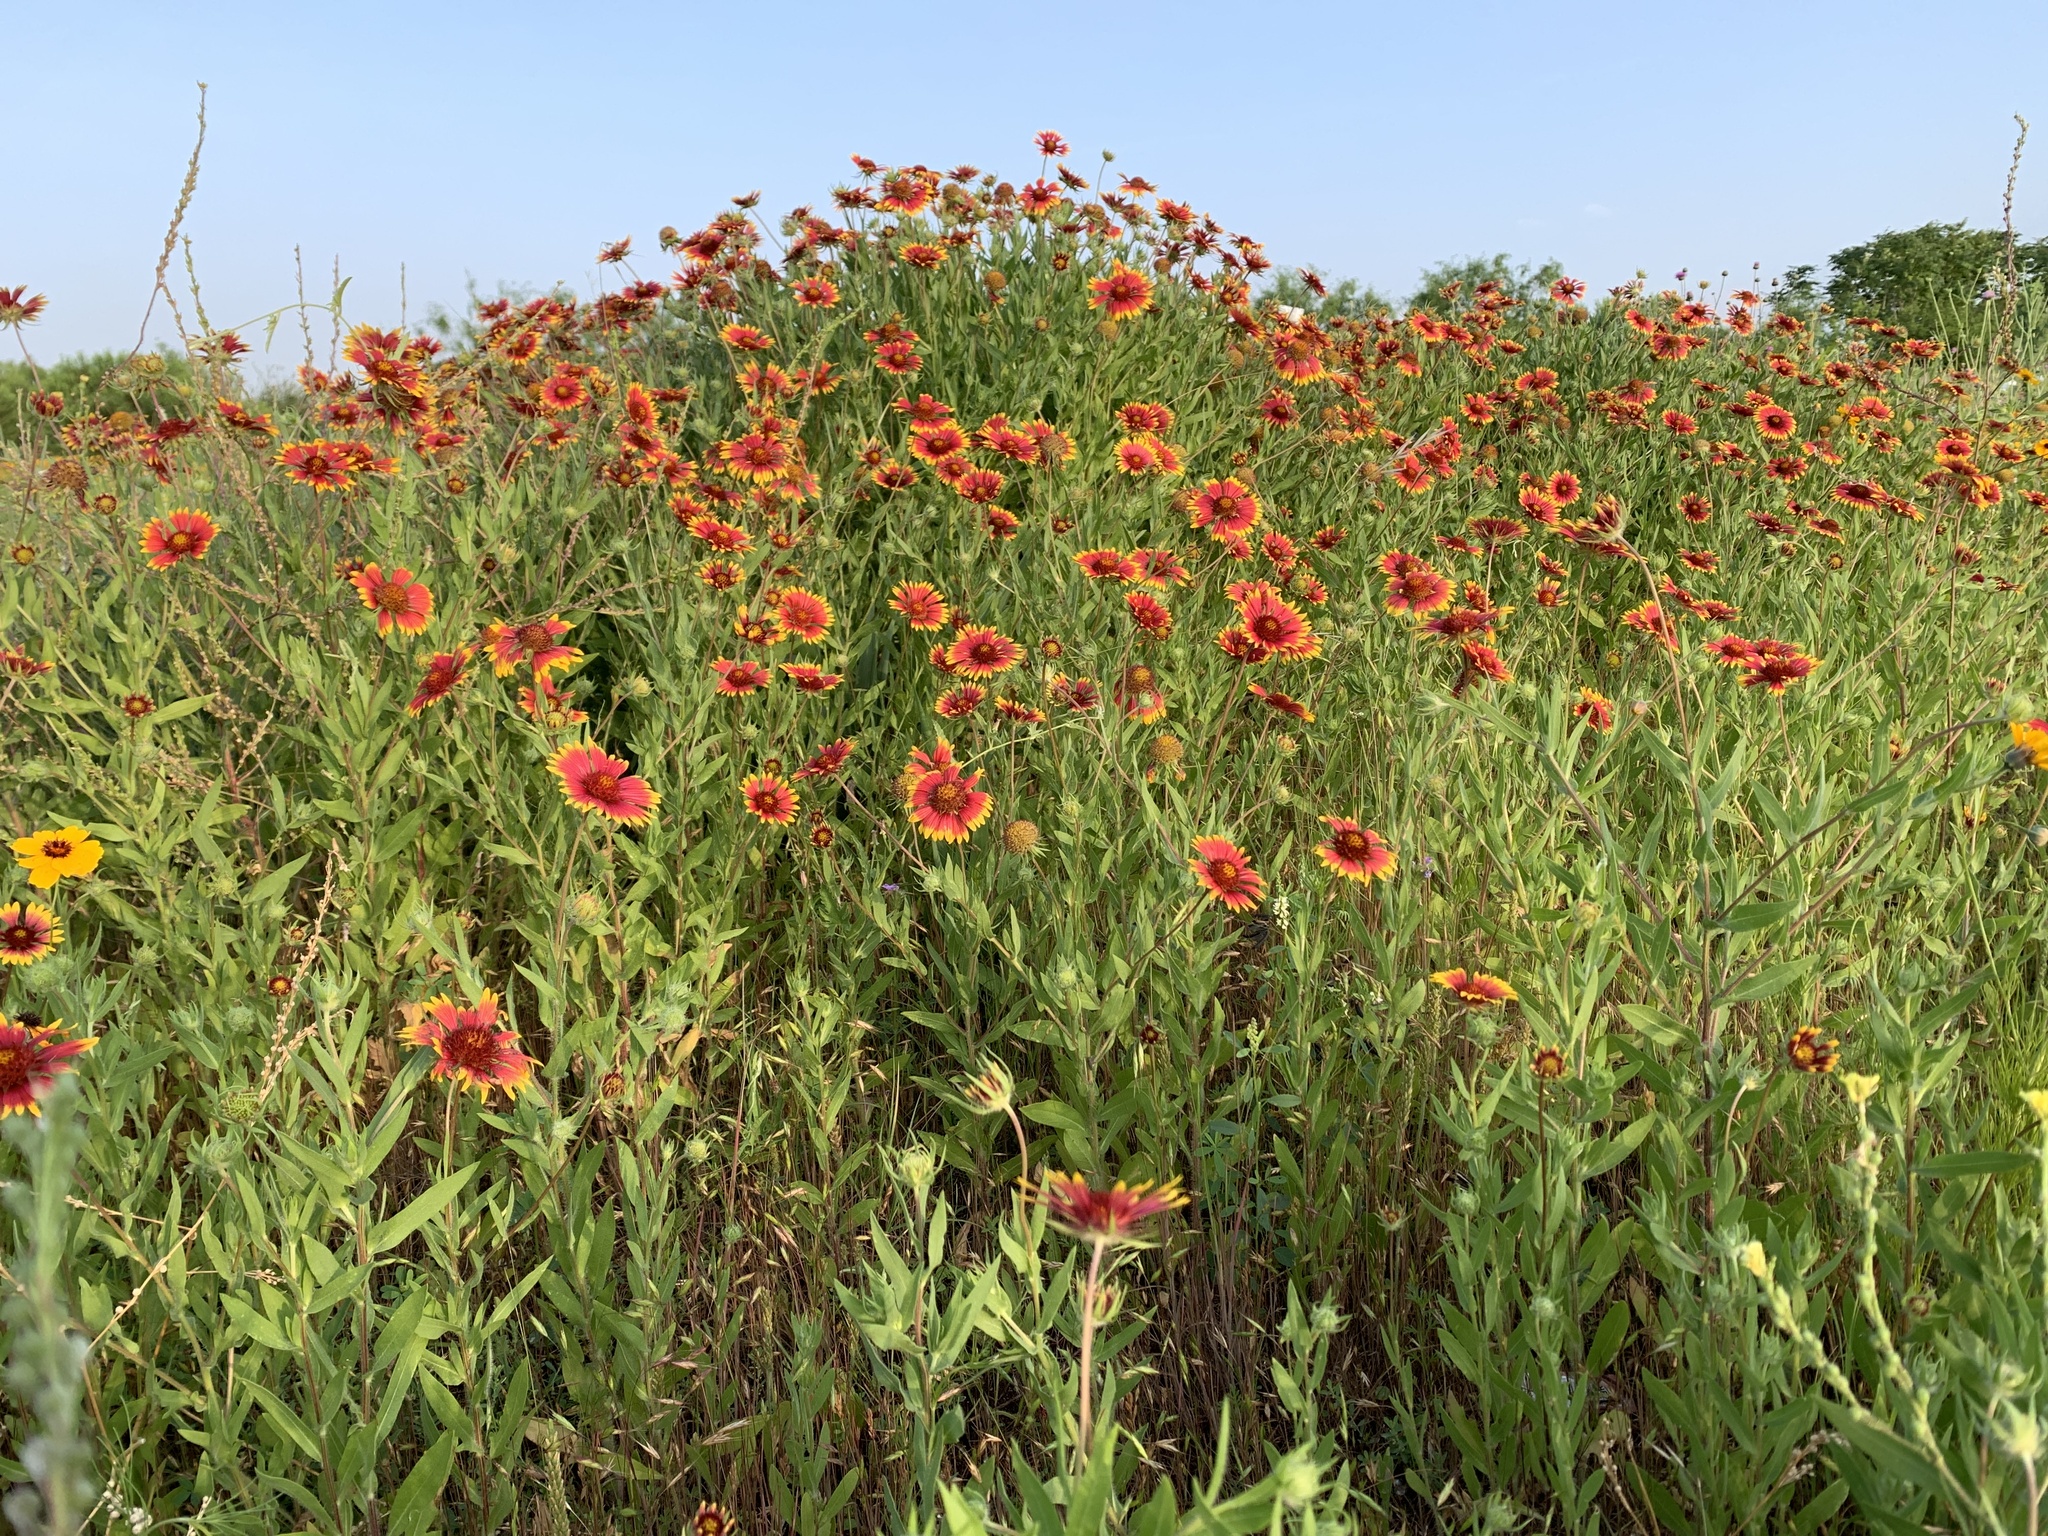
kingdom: Plantae
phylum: Tracheophyta
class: Magnoliopsida
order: Asterales
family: Asteraceae
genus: Gaillardia
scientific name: Gaillardia pulchella
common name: Firewheel
